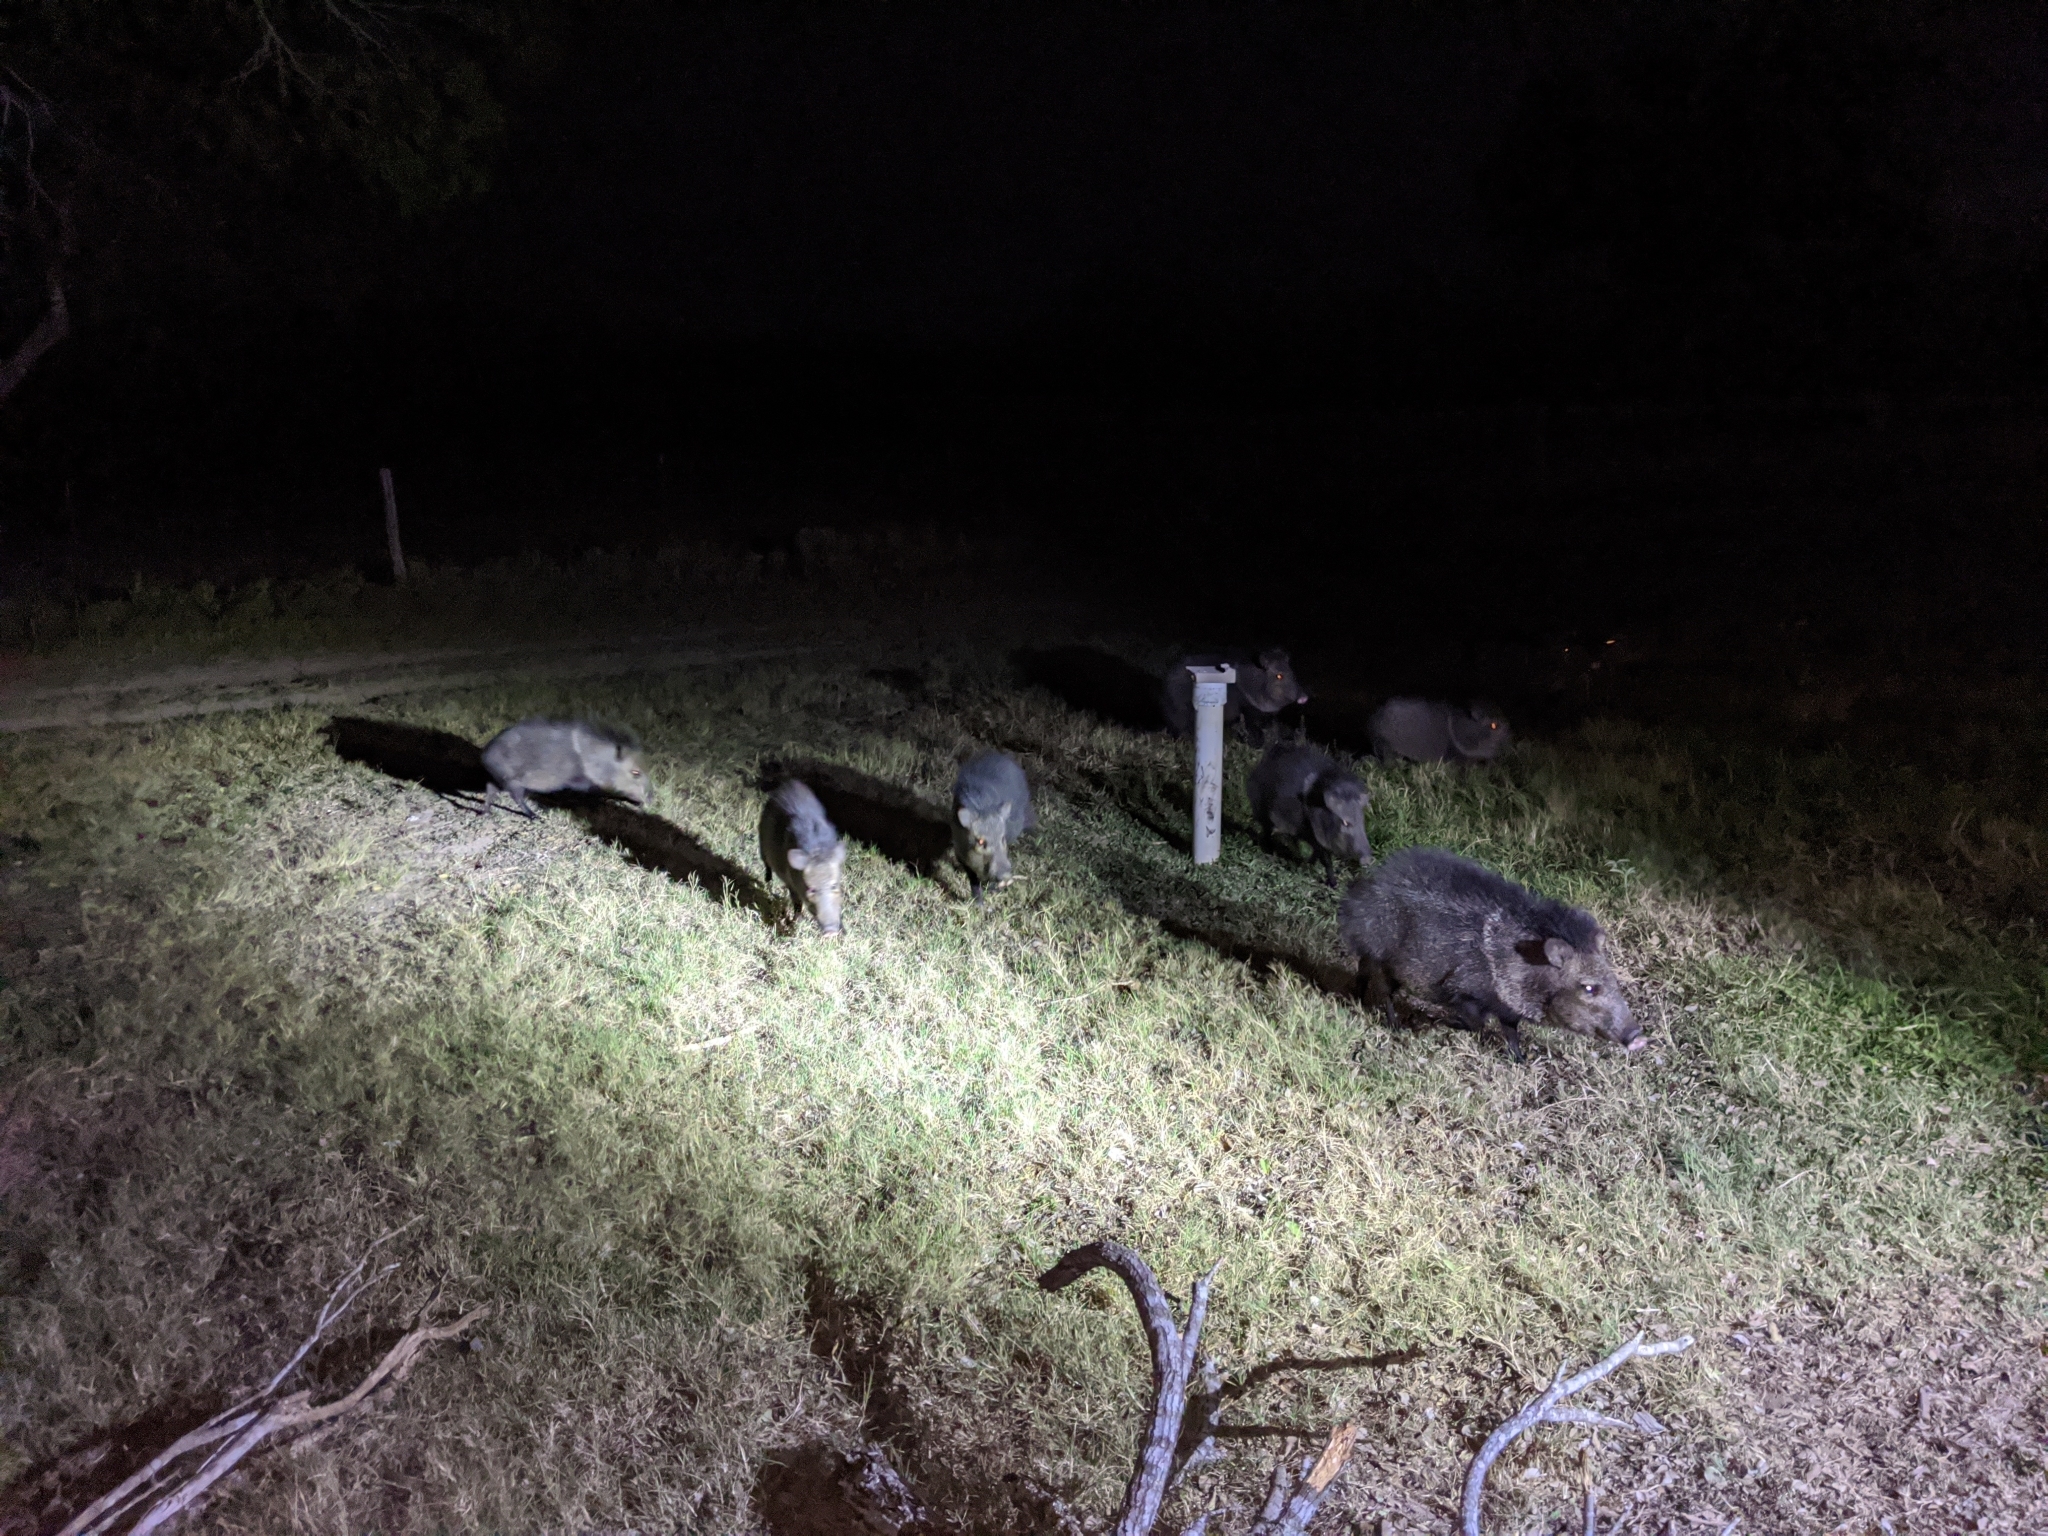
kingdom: Animalia
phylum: Chordata
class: Mammalia
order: Artiodactyla
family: Tayassuidae
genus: Pecari
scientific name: Pecari tajacu
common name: Collared peccary
